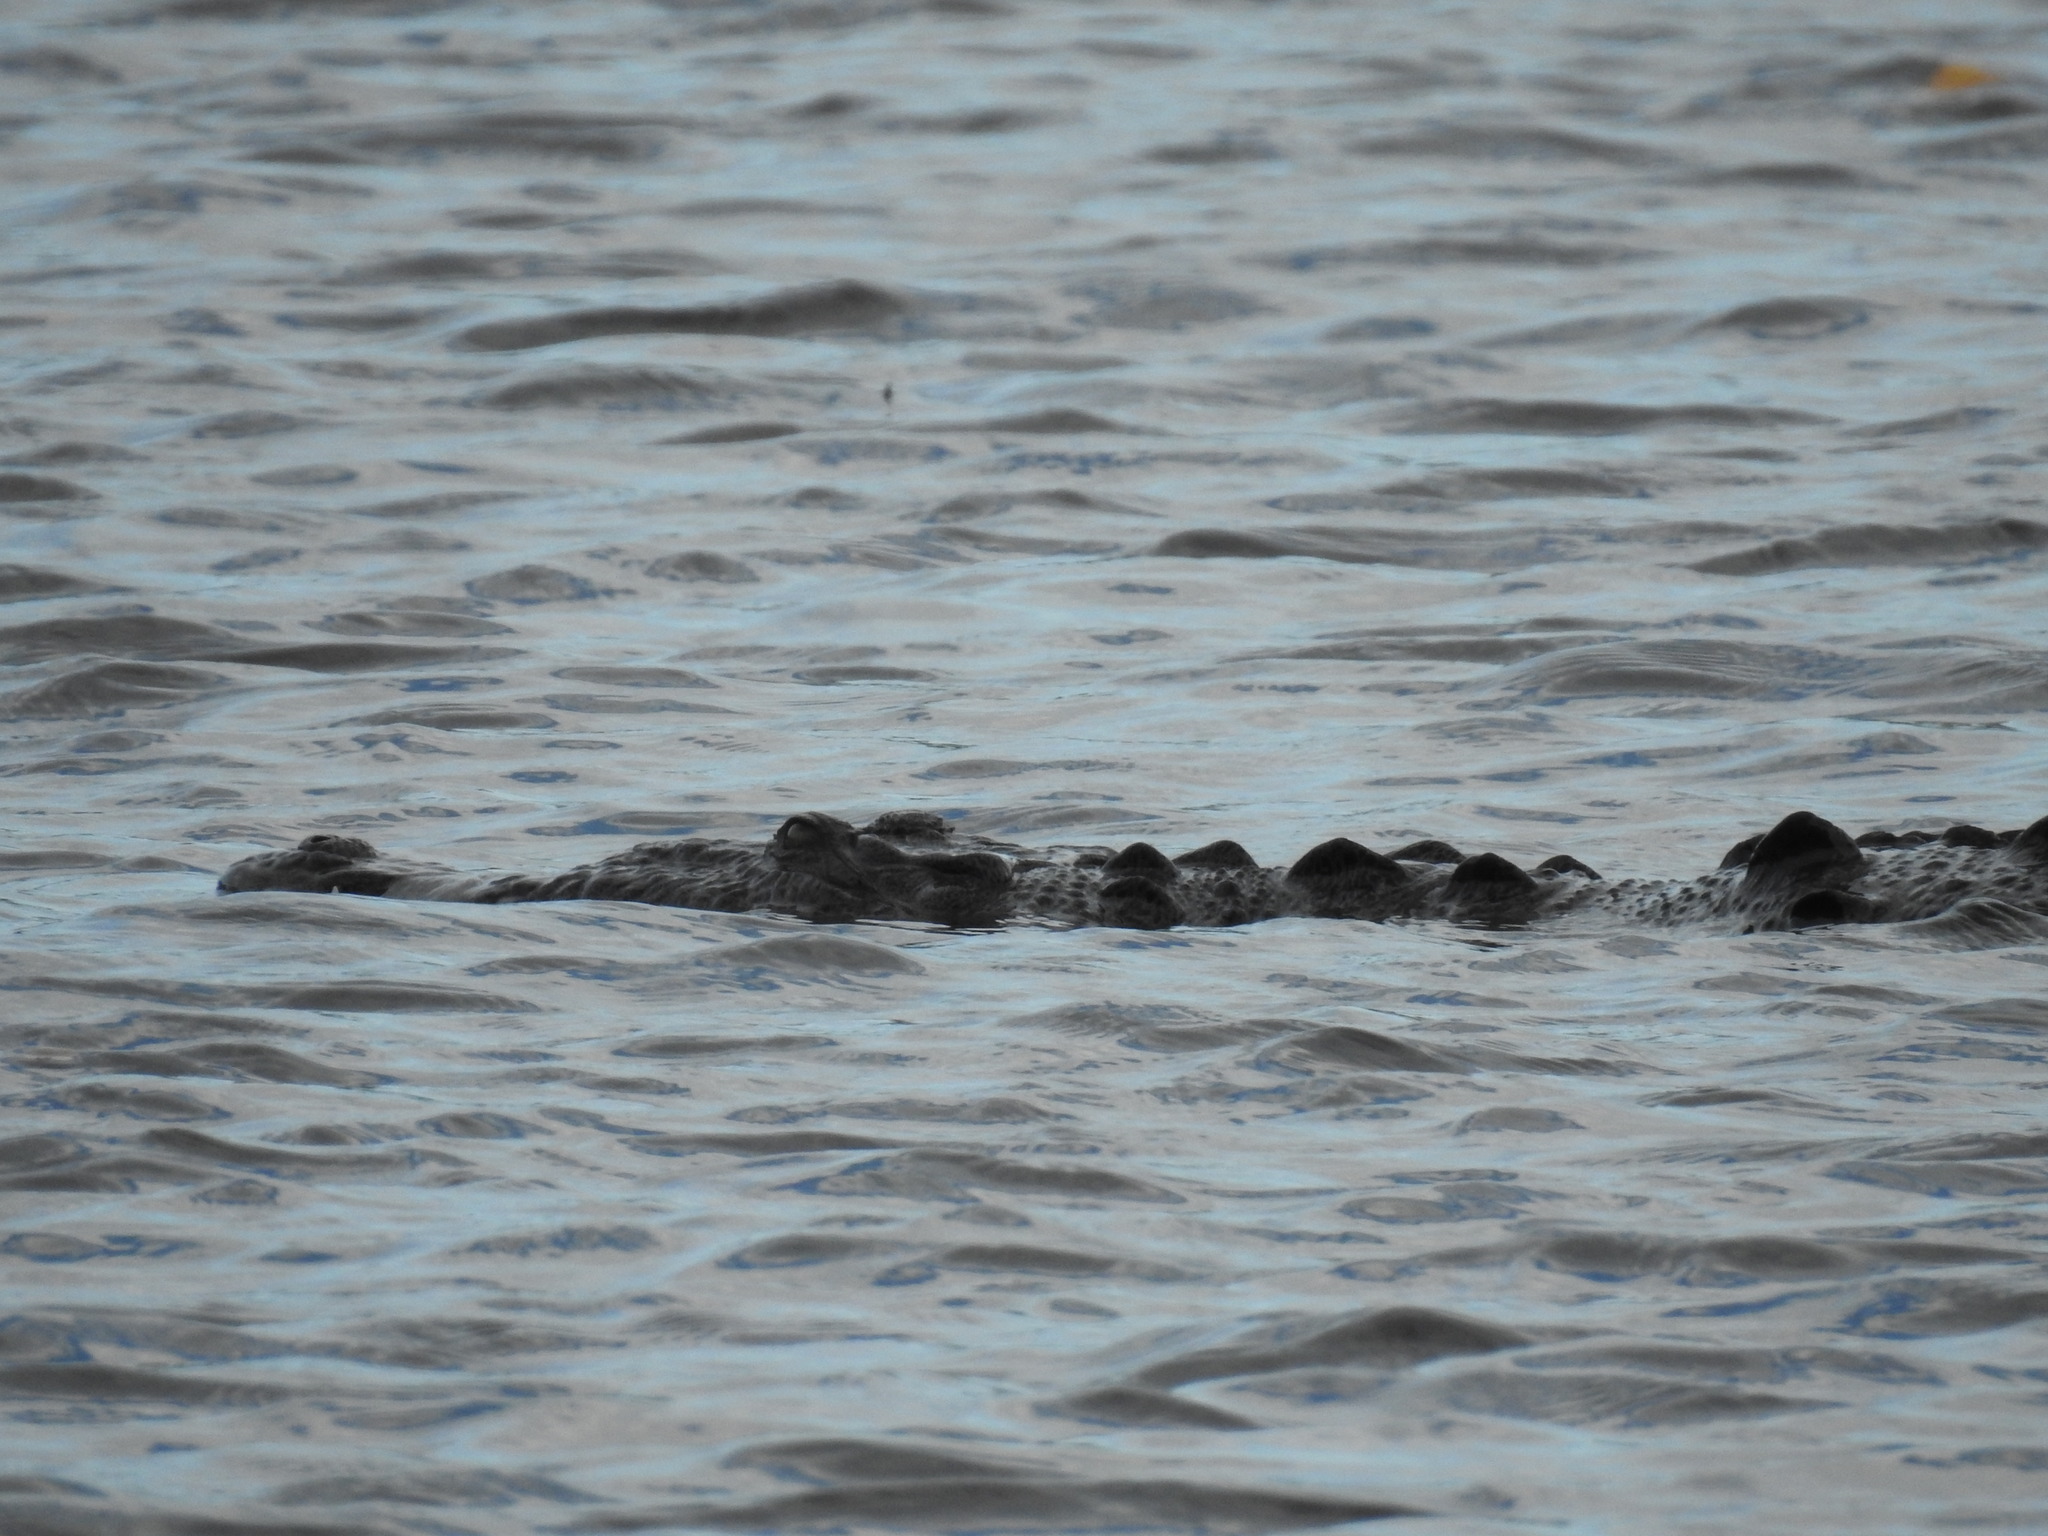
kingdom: Animalia
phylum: Chordata
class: Crocodylia
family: Crocodylidae
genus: Crocodylus
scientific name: Crocodylus acutus
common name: American crocodile
